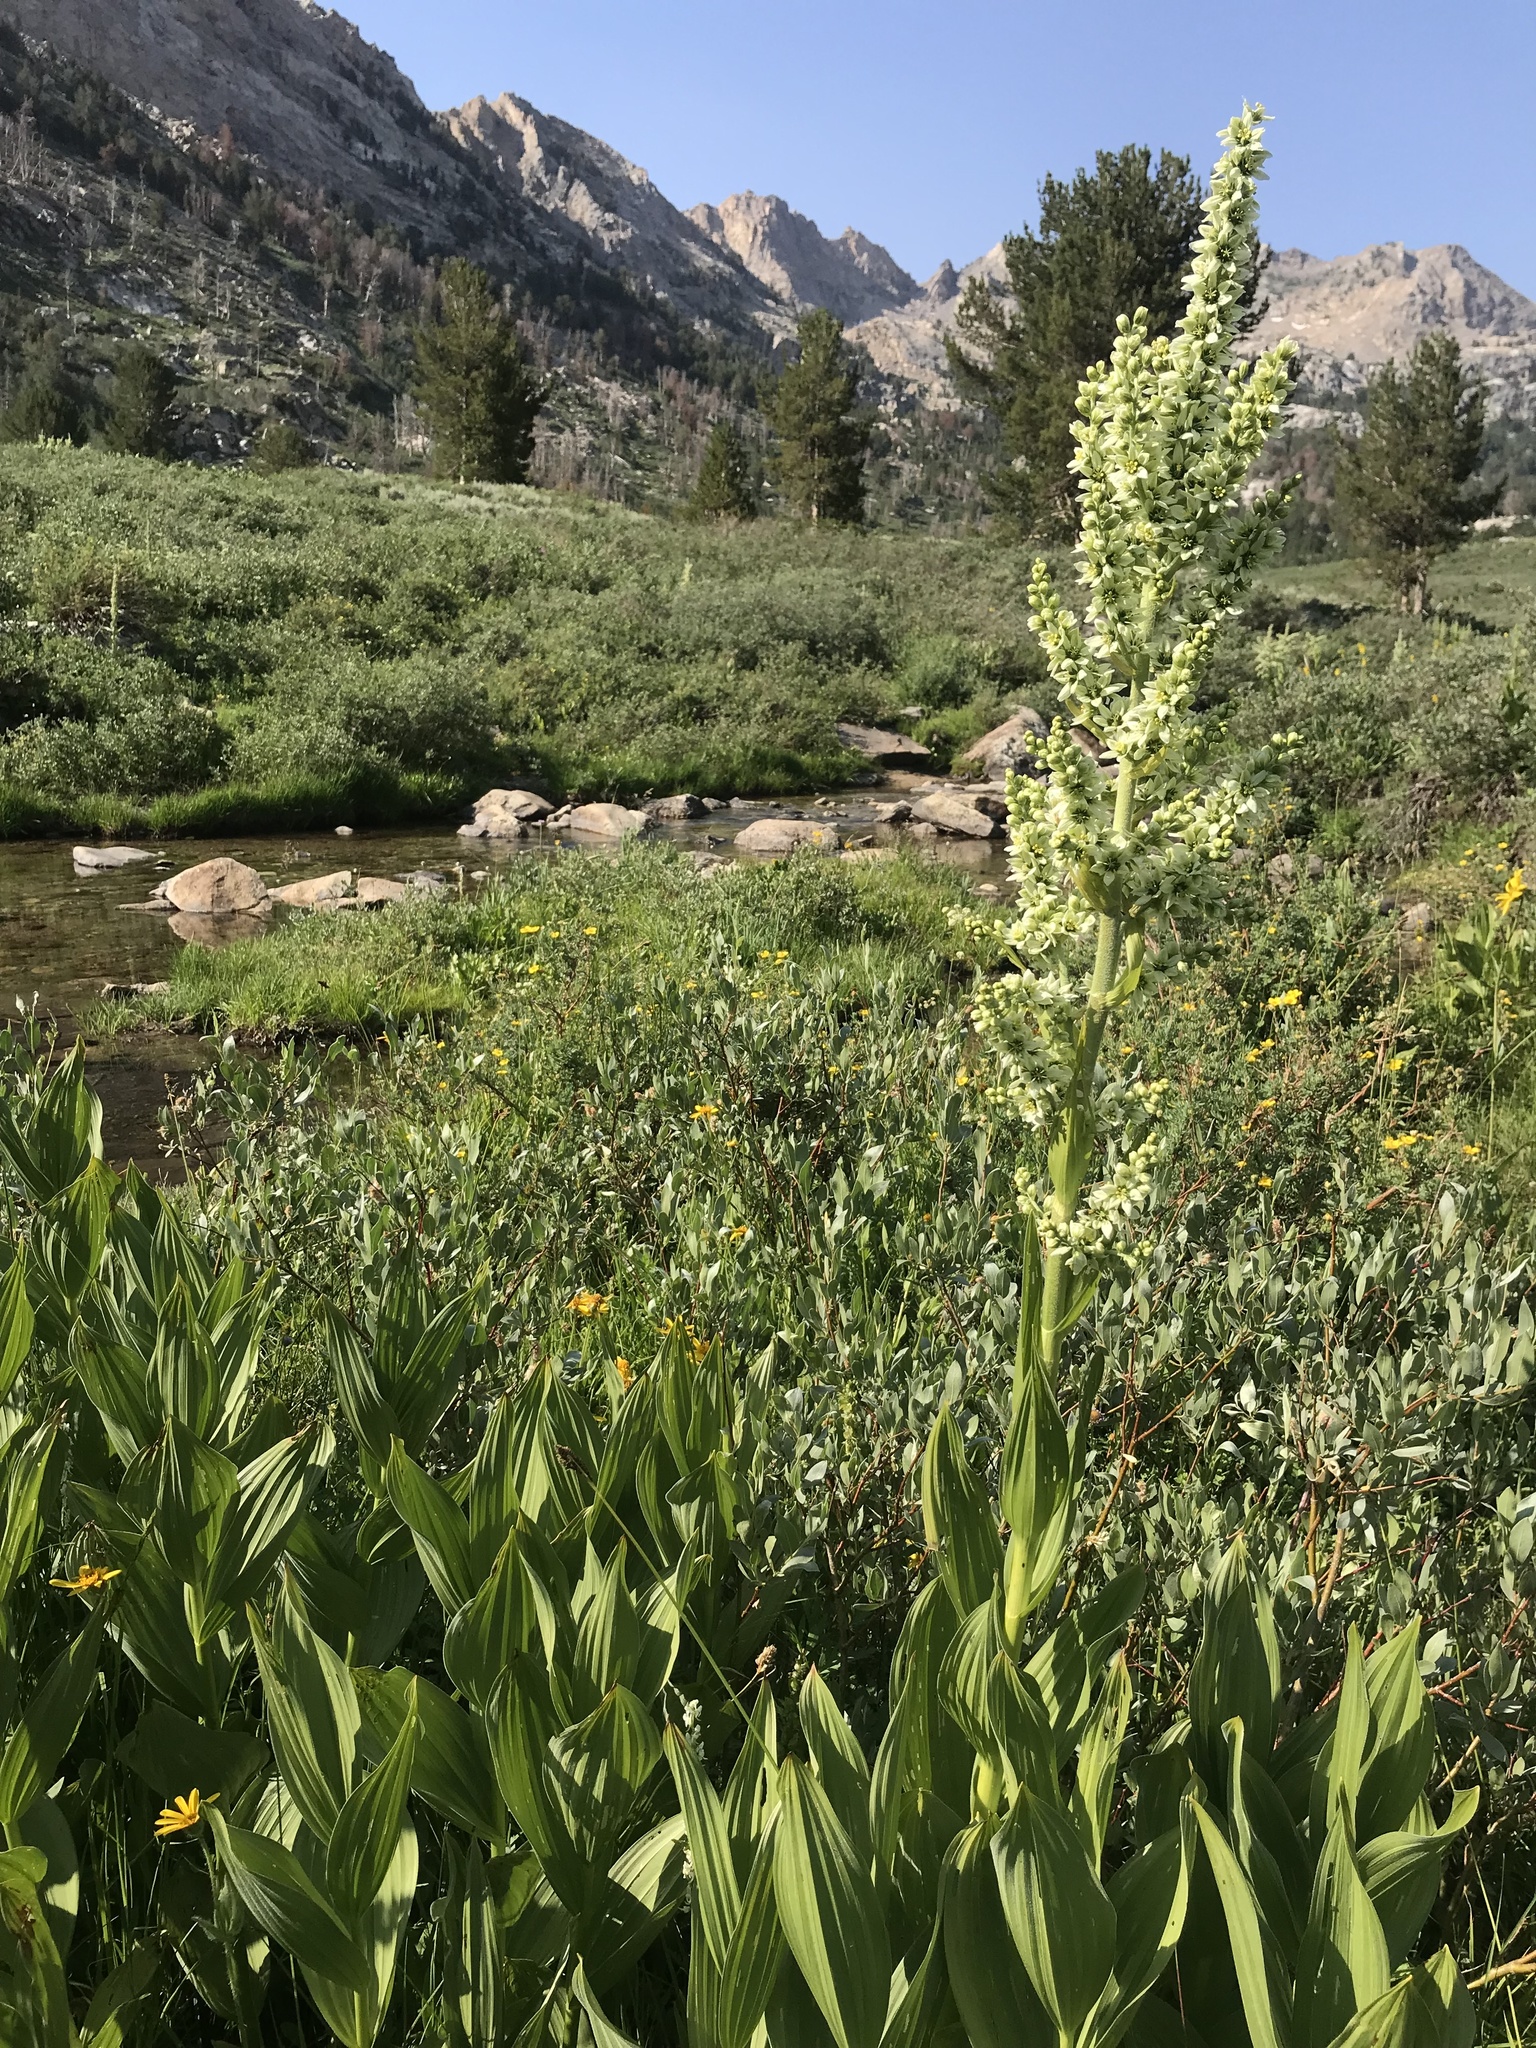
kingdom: Plantae
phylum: Tracheophyta
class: Liliopsida
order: Liliales
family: Melanthiaceae
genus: Veratrum
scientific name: Veratrum californicum
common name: California veratrum
